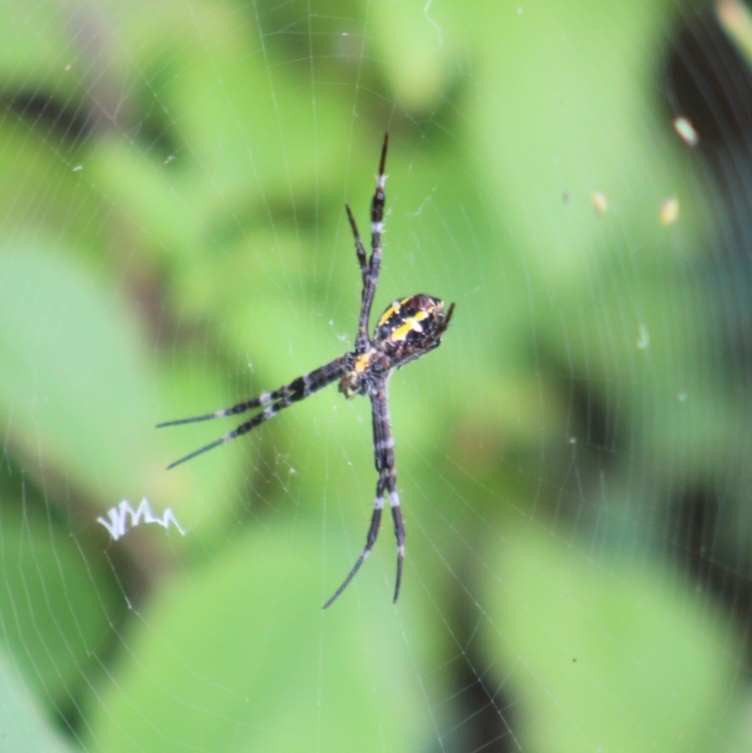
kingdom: Animalia
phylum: Arthropoda
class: Arachnida
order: Araneae
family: Araneidae
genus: Argiope
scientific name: Argiope appensa
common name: Garden spider
